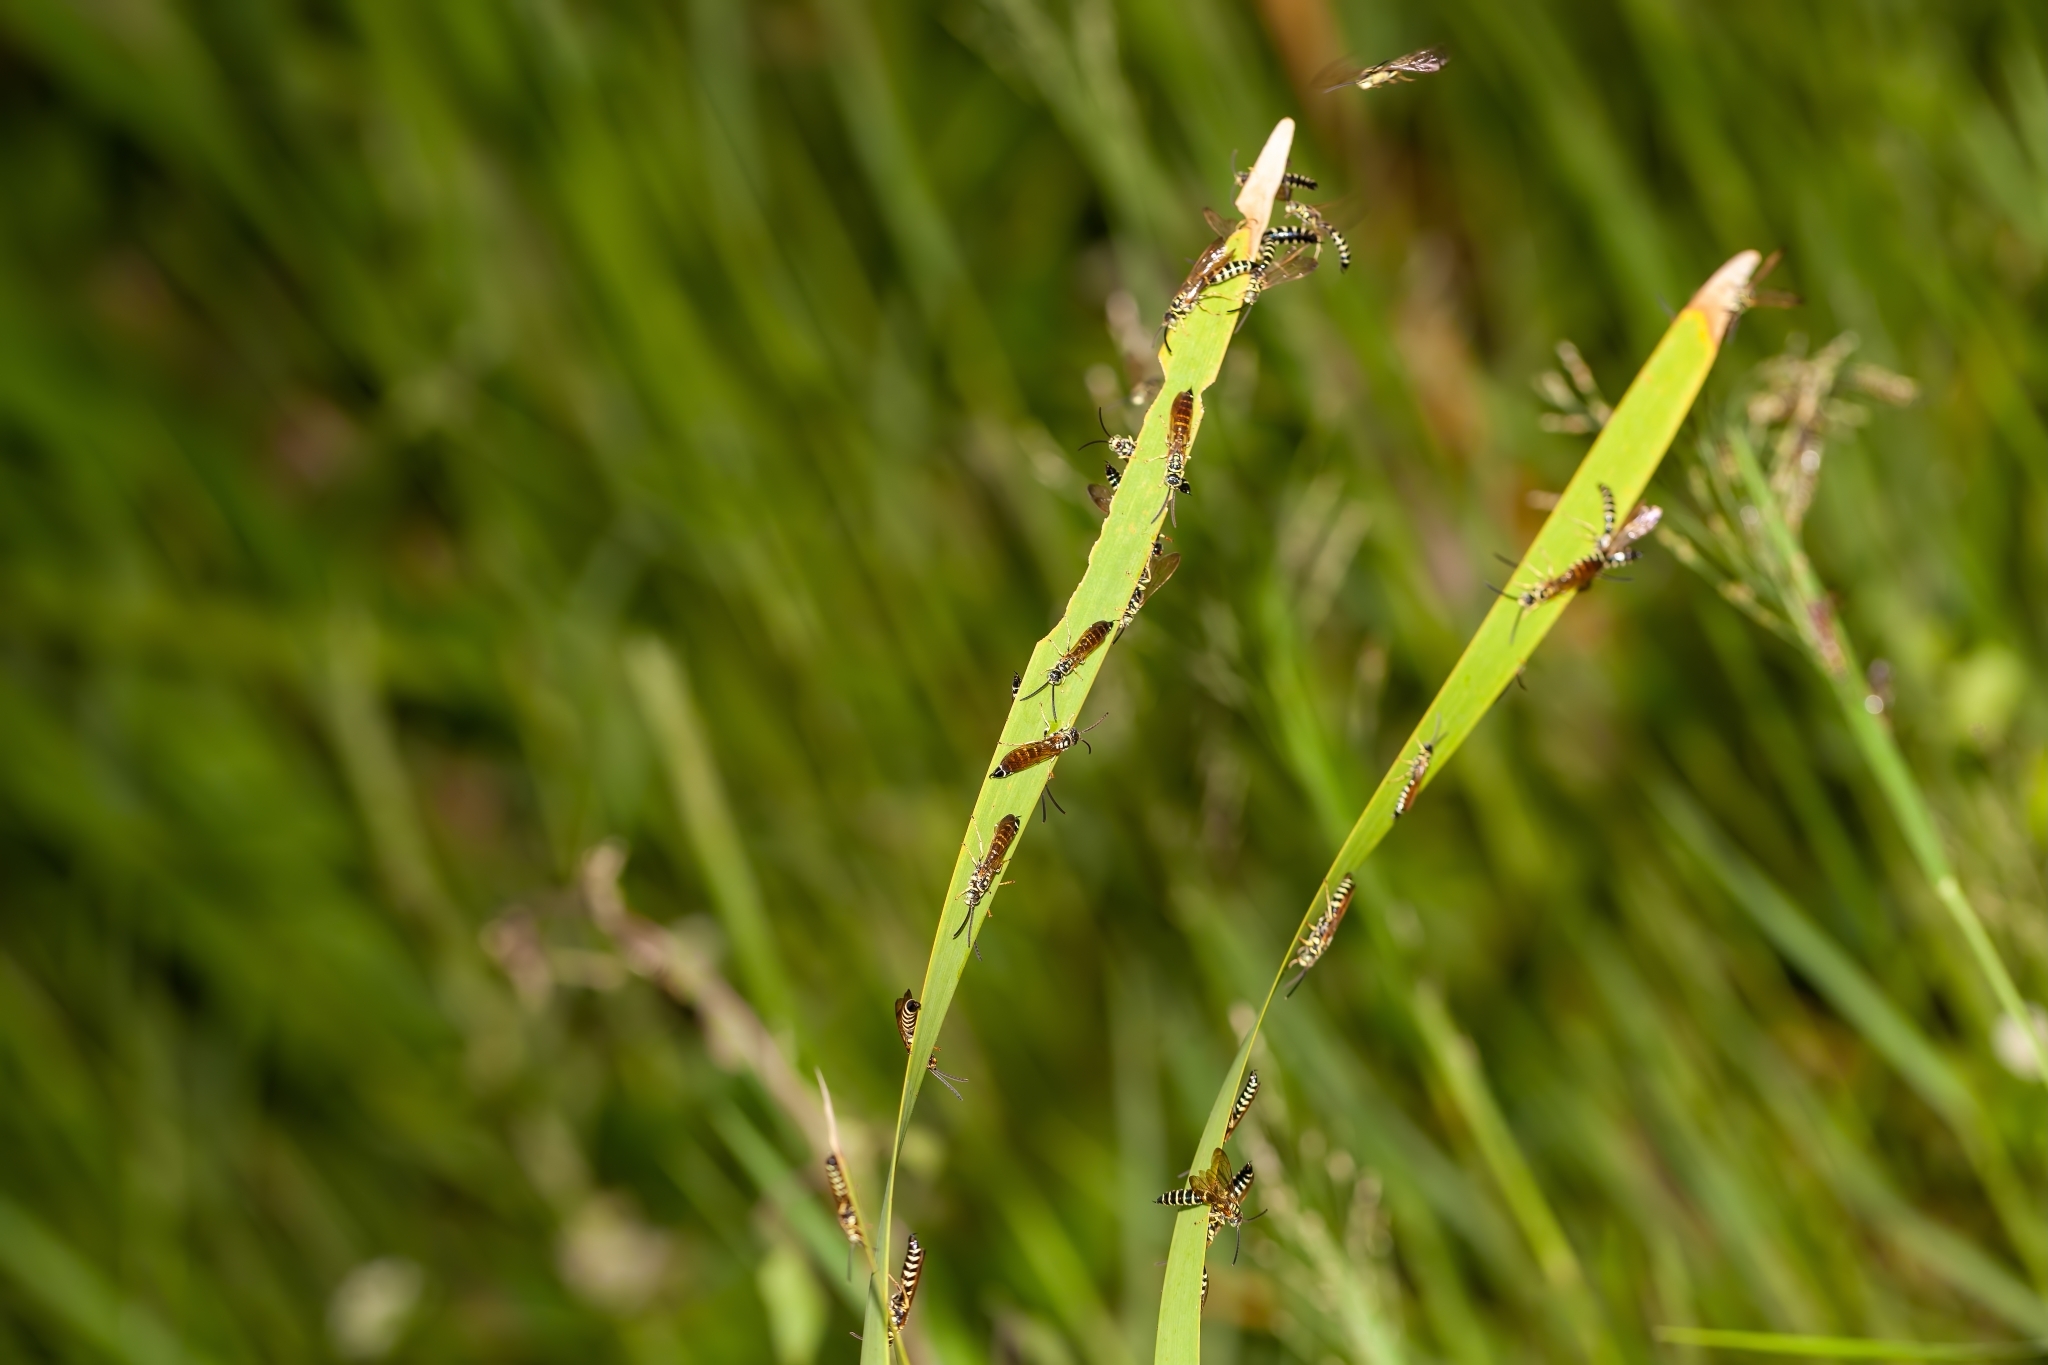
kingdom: Animalia
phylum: Arthropoda
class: Insecta
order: Hymenoptera
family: Tiphiidae
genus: Myzinum
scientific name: Myzinum
